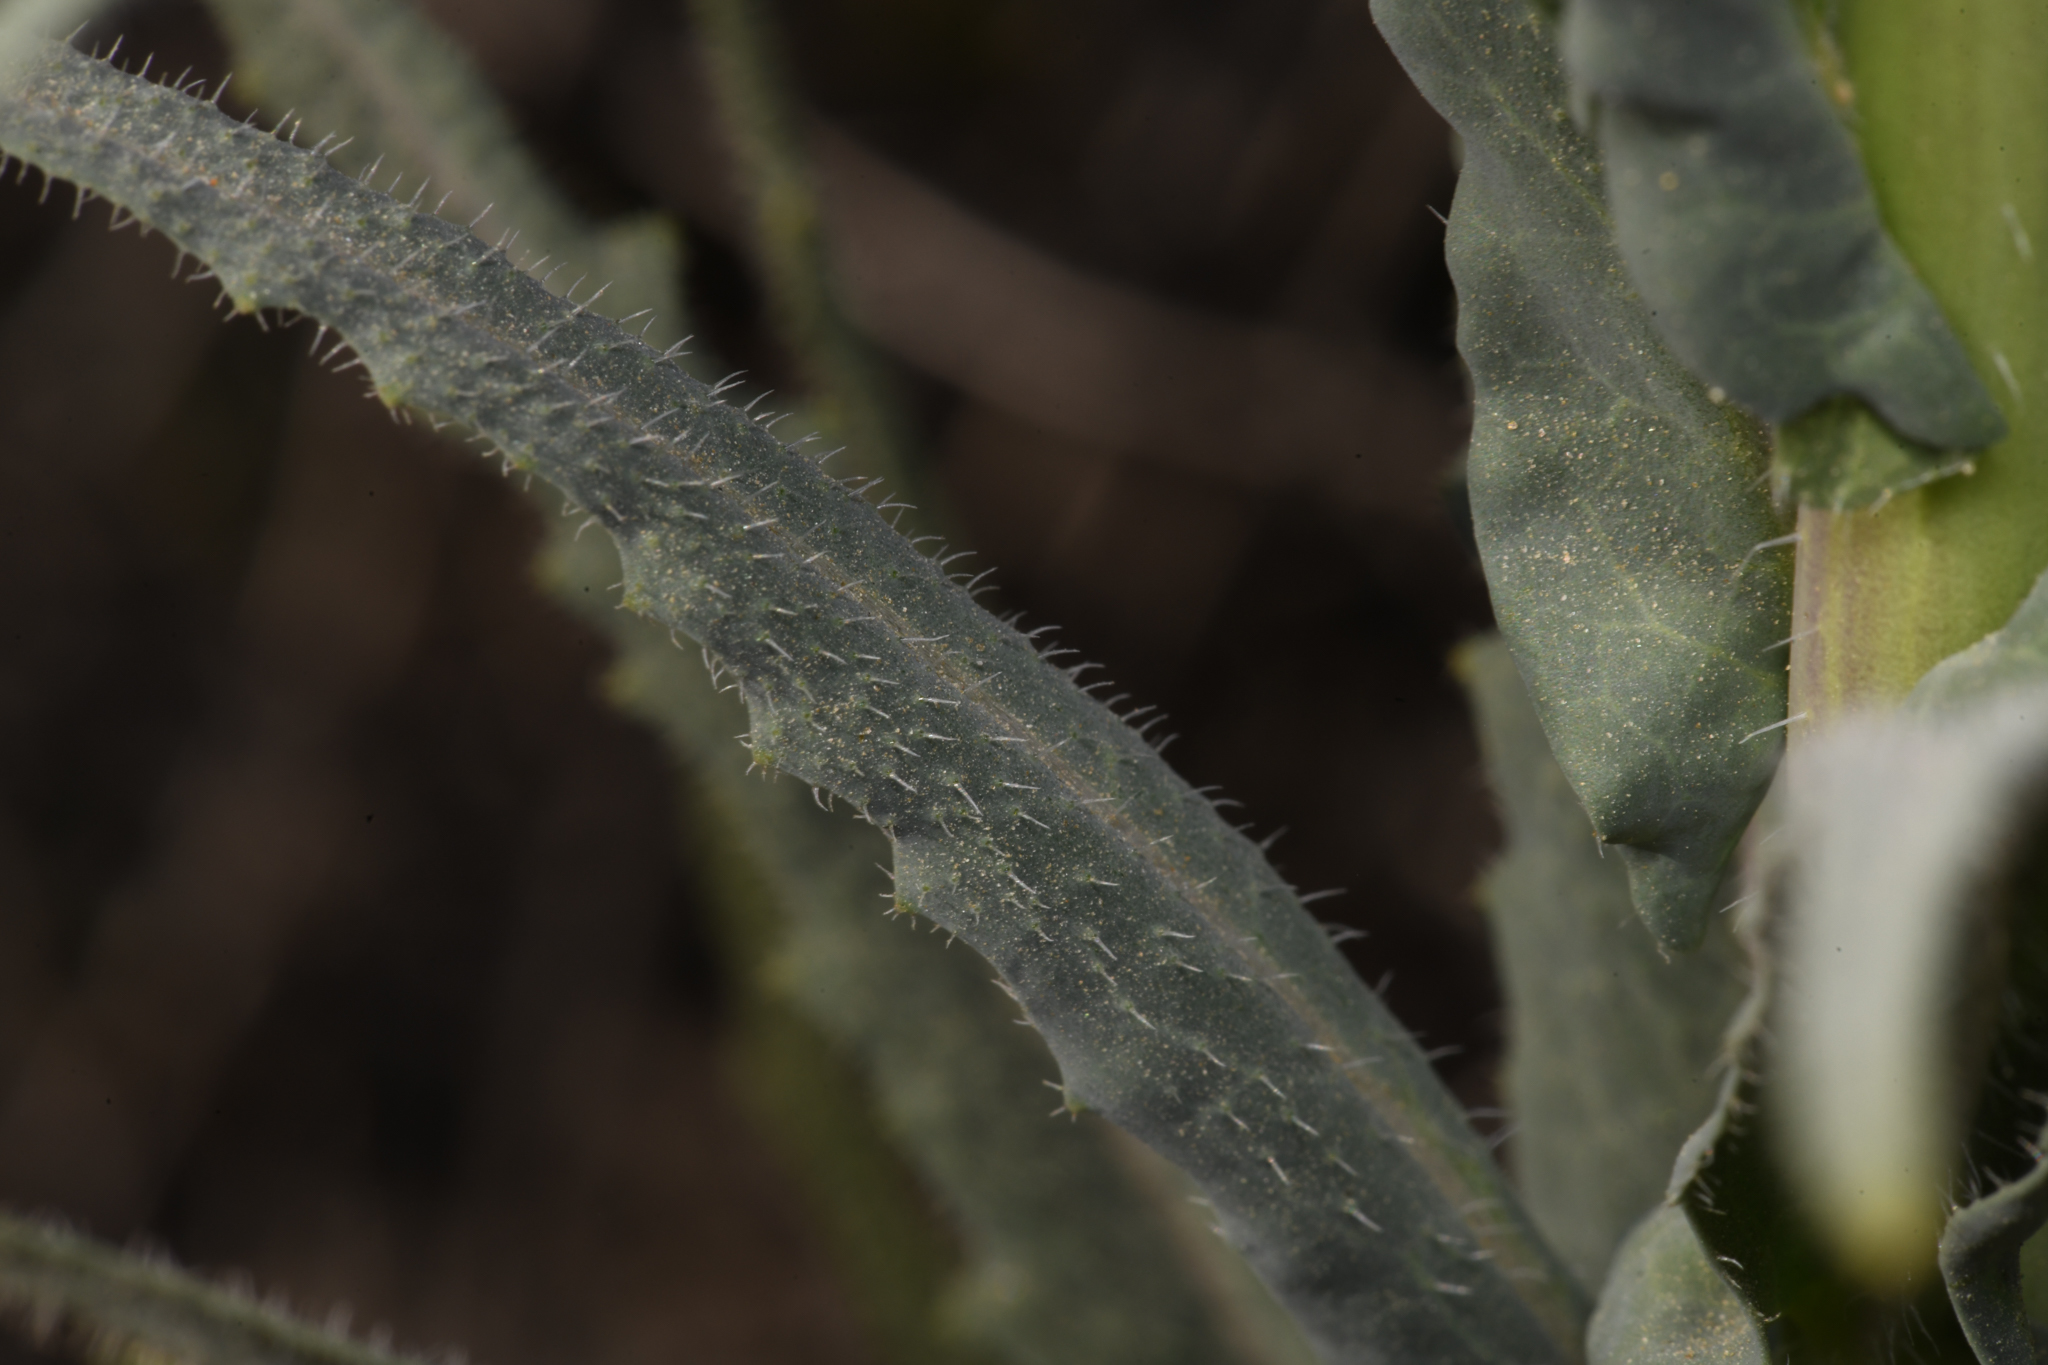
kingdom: Plantae
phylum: Tracheophyta
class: Magnoliopsida
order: Brassicales
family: Brassicaceae
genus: Streptanthus
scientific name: Streptanthus heterophyllus
